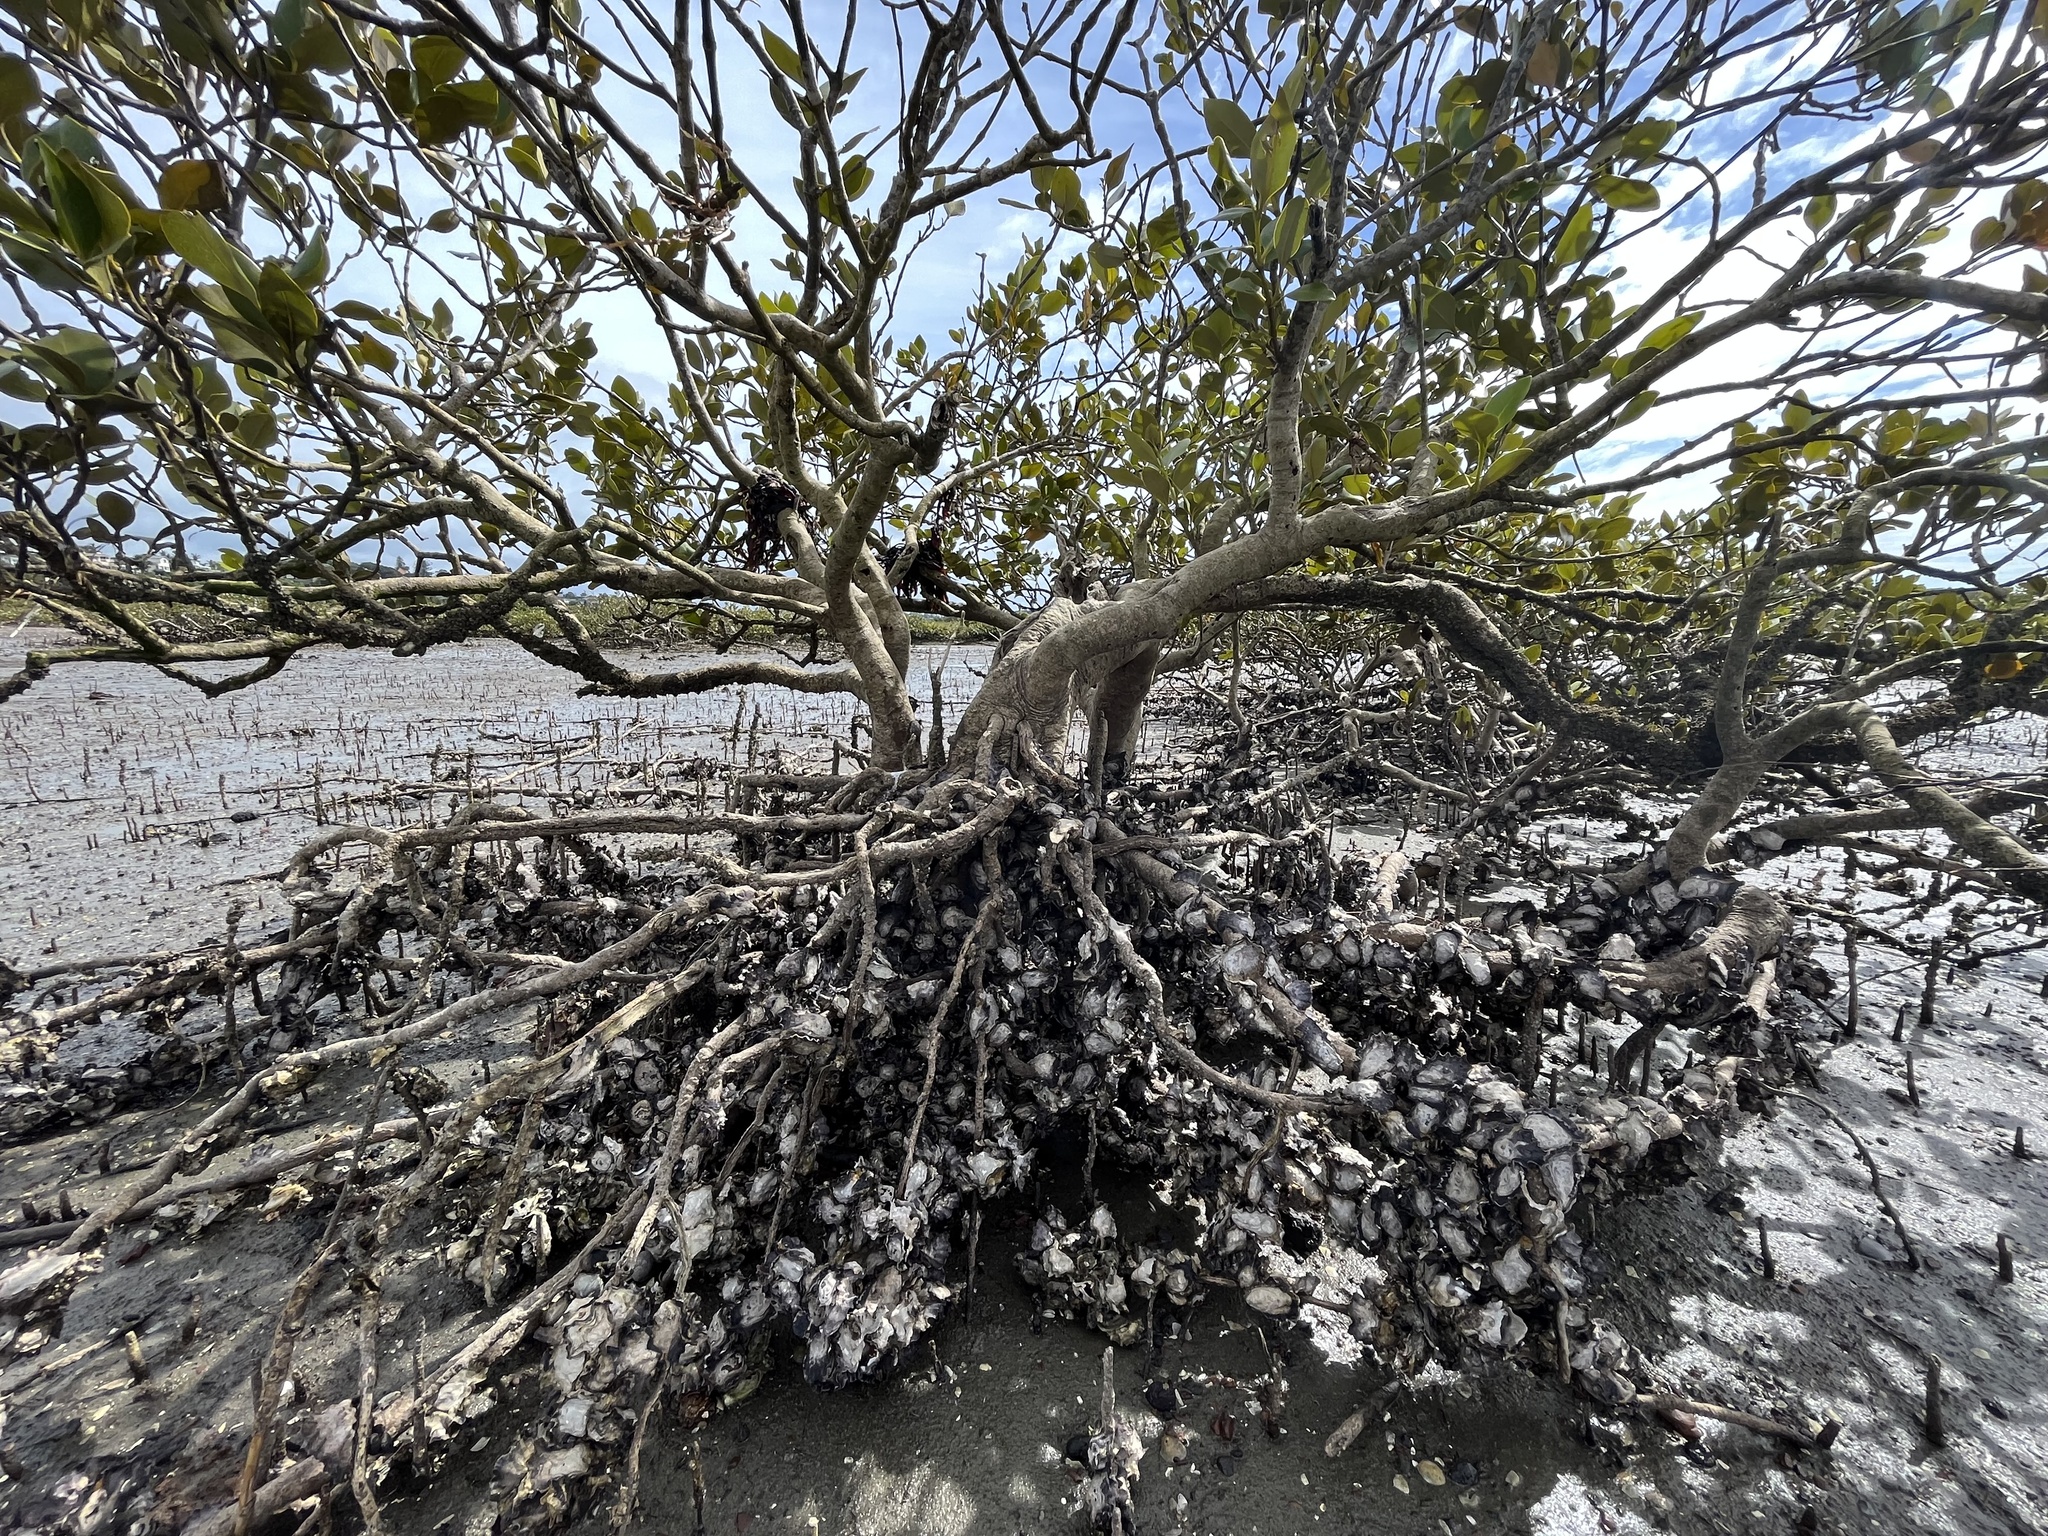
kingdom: Plantae
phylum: Tracheophyta
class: Magnoliopsida
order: Lamiales
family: Acanthaceae
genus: Avicennia
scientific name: Avicennia marina
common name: Gray mangrove
